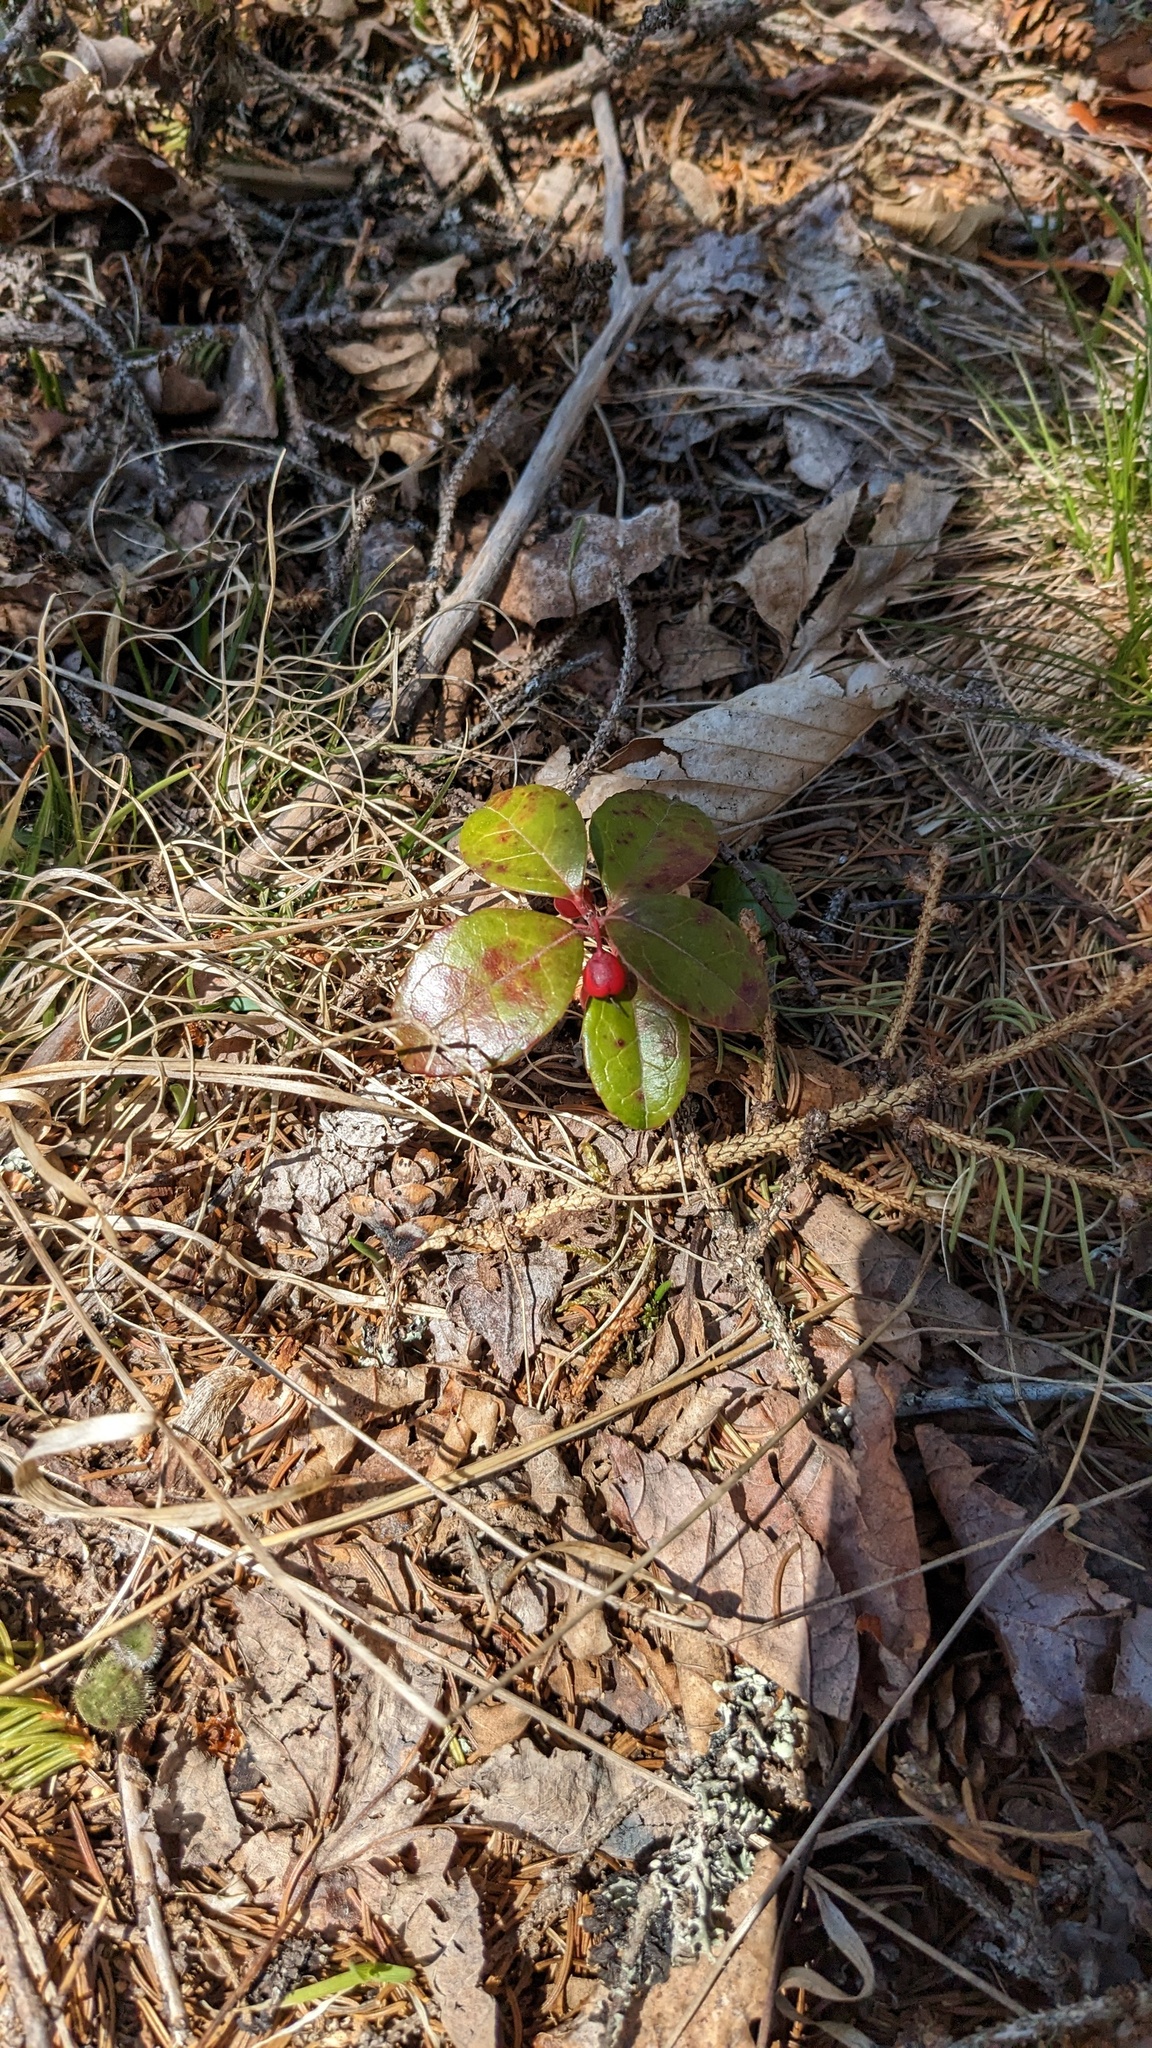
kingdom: Plantae
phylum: Tracheophyta
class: Magnoliopsida
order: Ericales
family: Ericaceae
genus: Gaultheria
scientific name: Gaultheria procumbens
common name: Checkerberry
